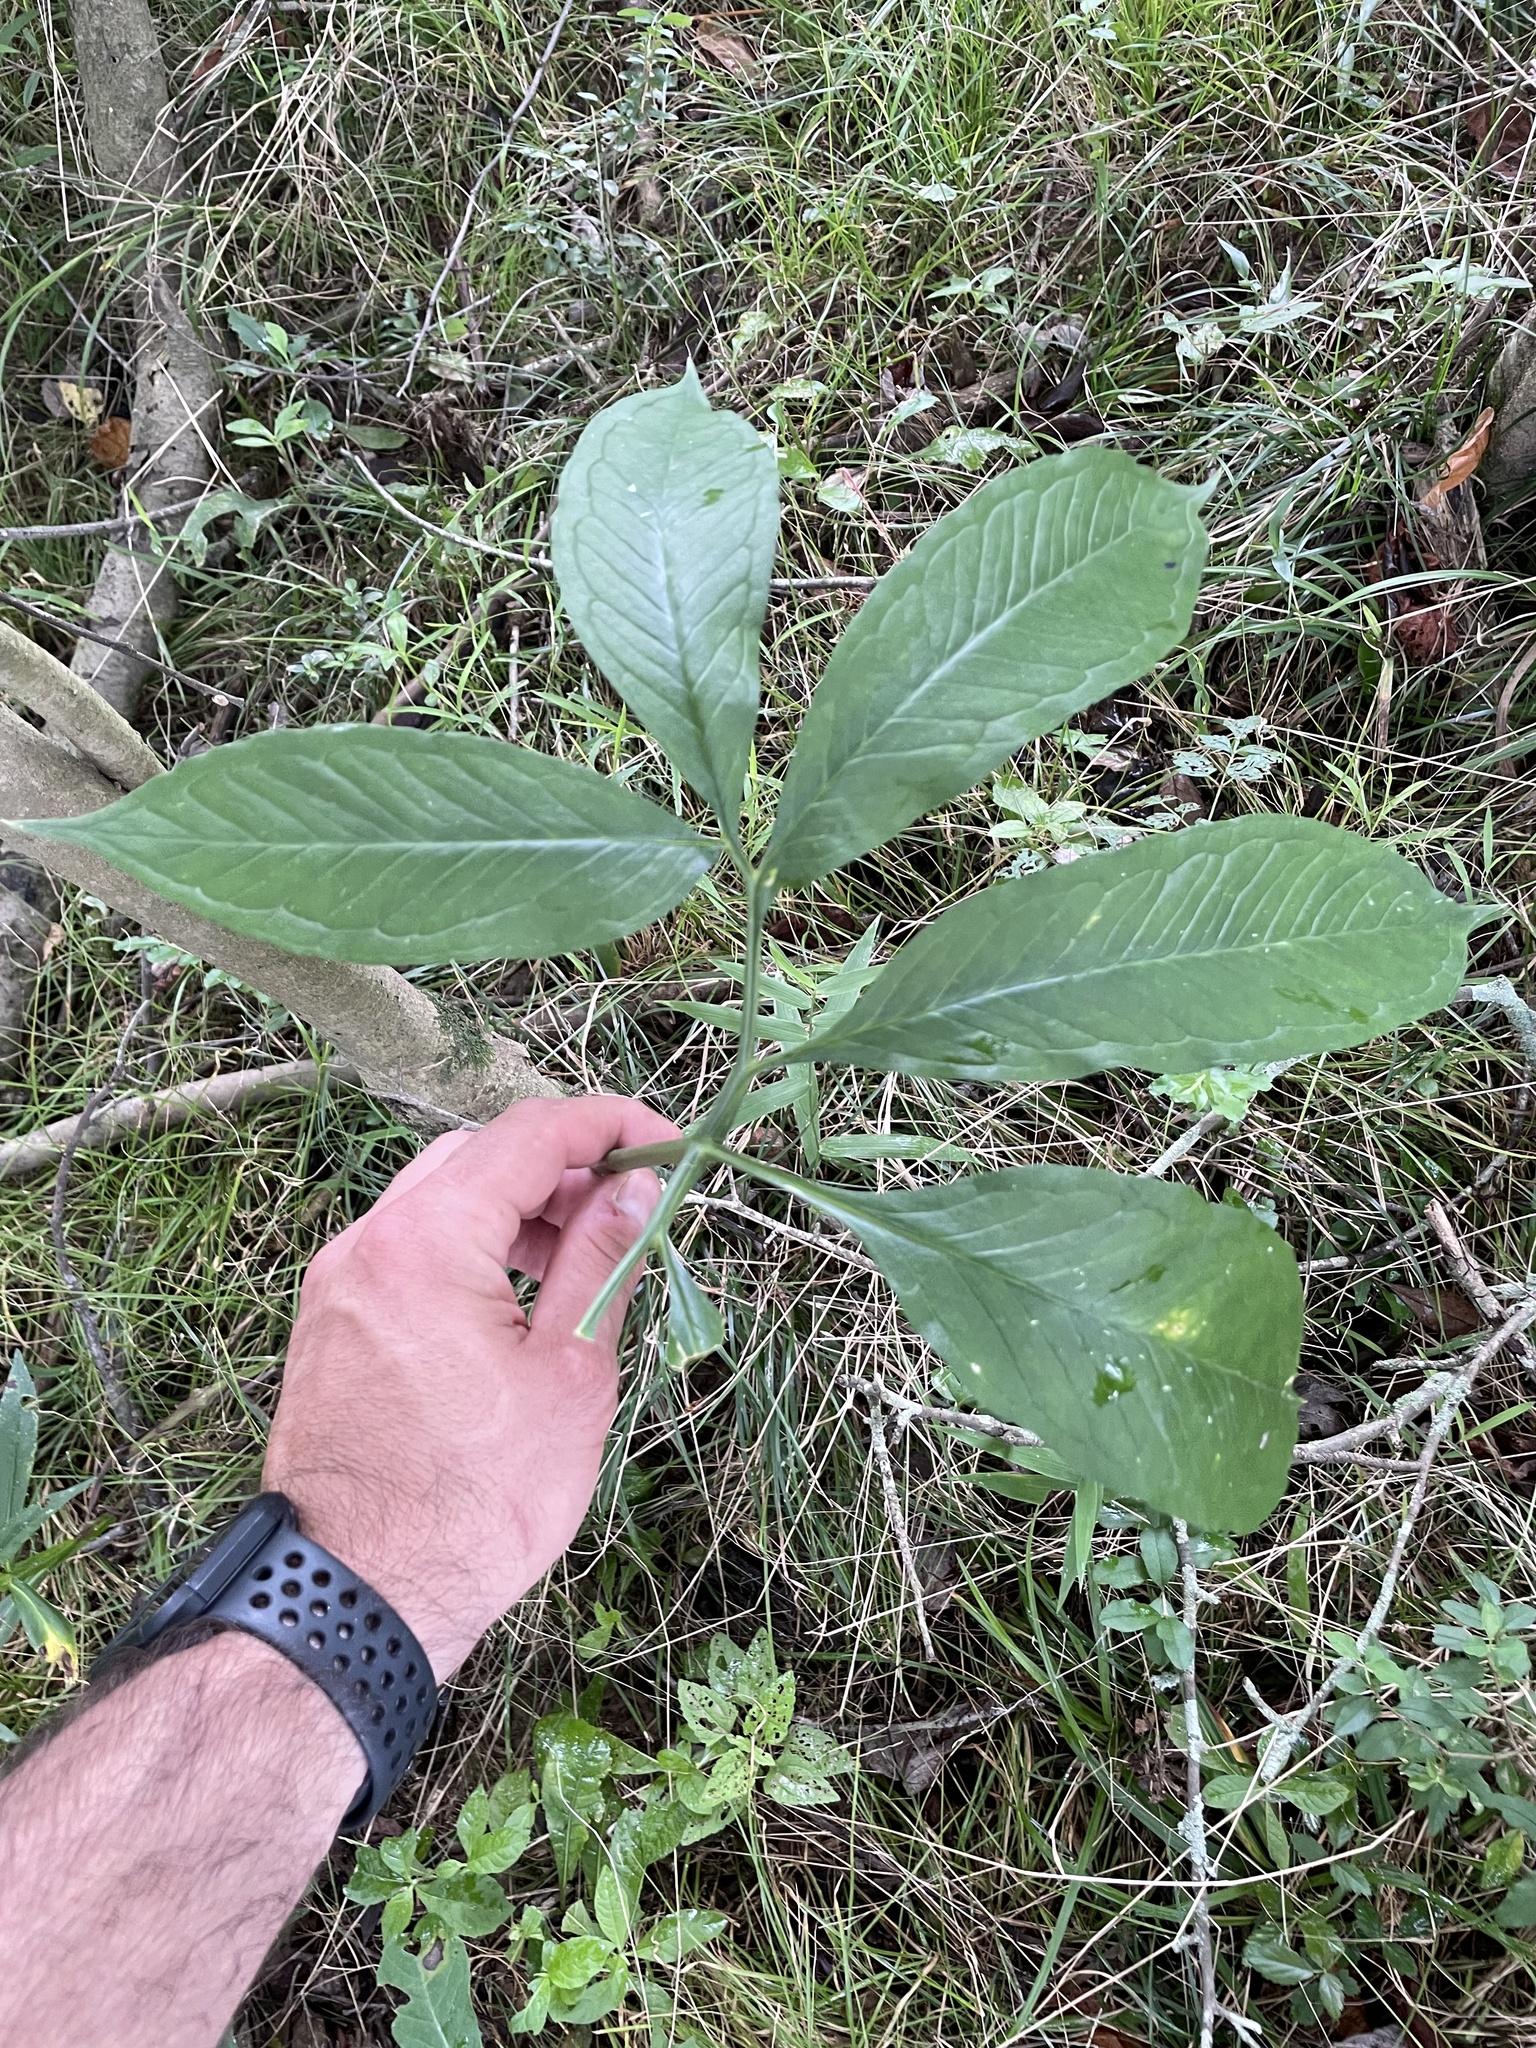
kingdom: Plantae
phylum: Tracheophyta
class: Liliopsida
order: Alismatales
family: Araceae
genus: Arisaema
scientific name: Arisaema dracontium
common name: Dragon-arum
